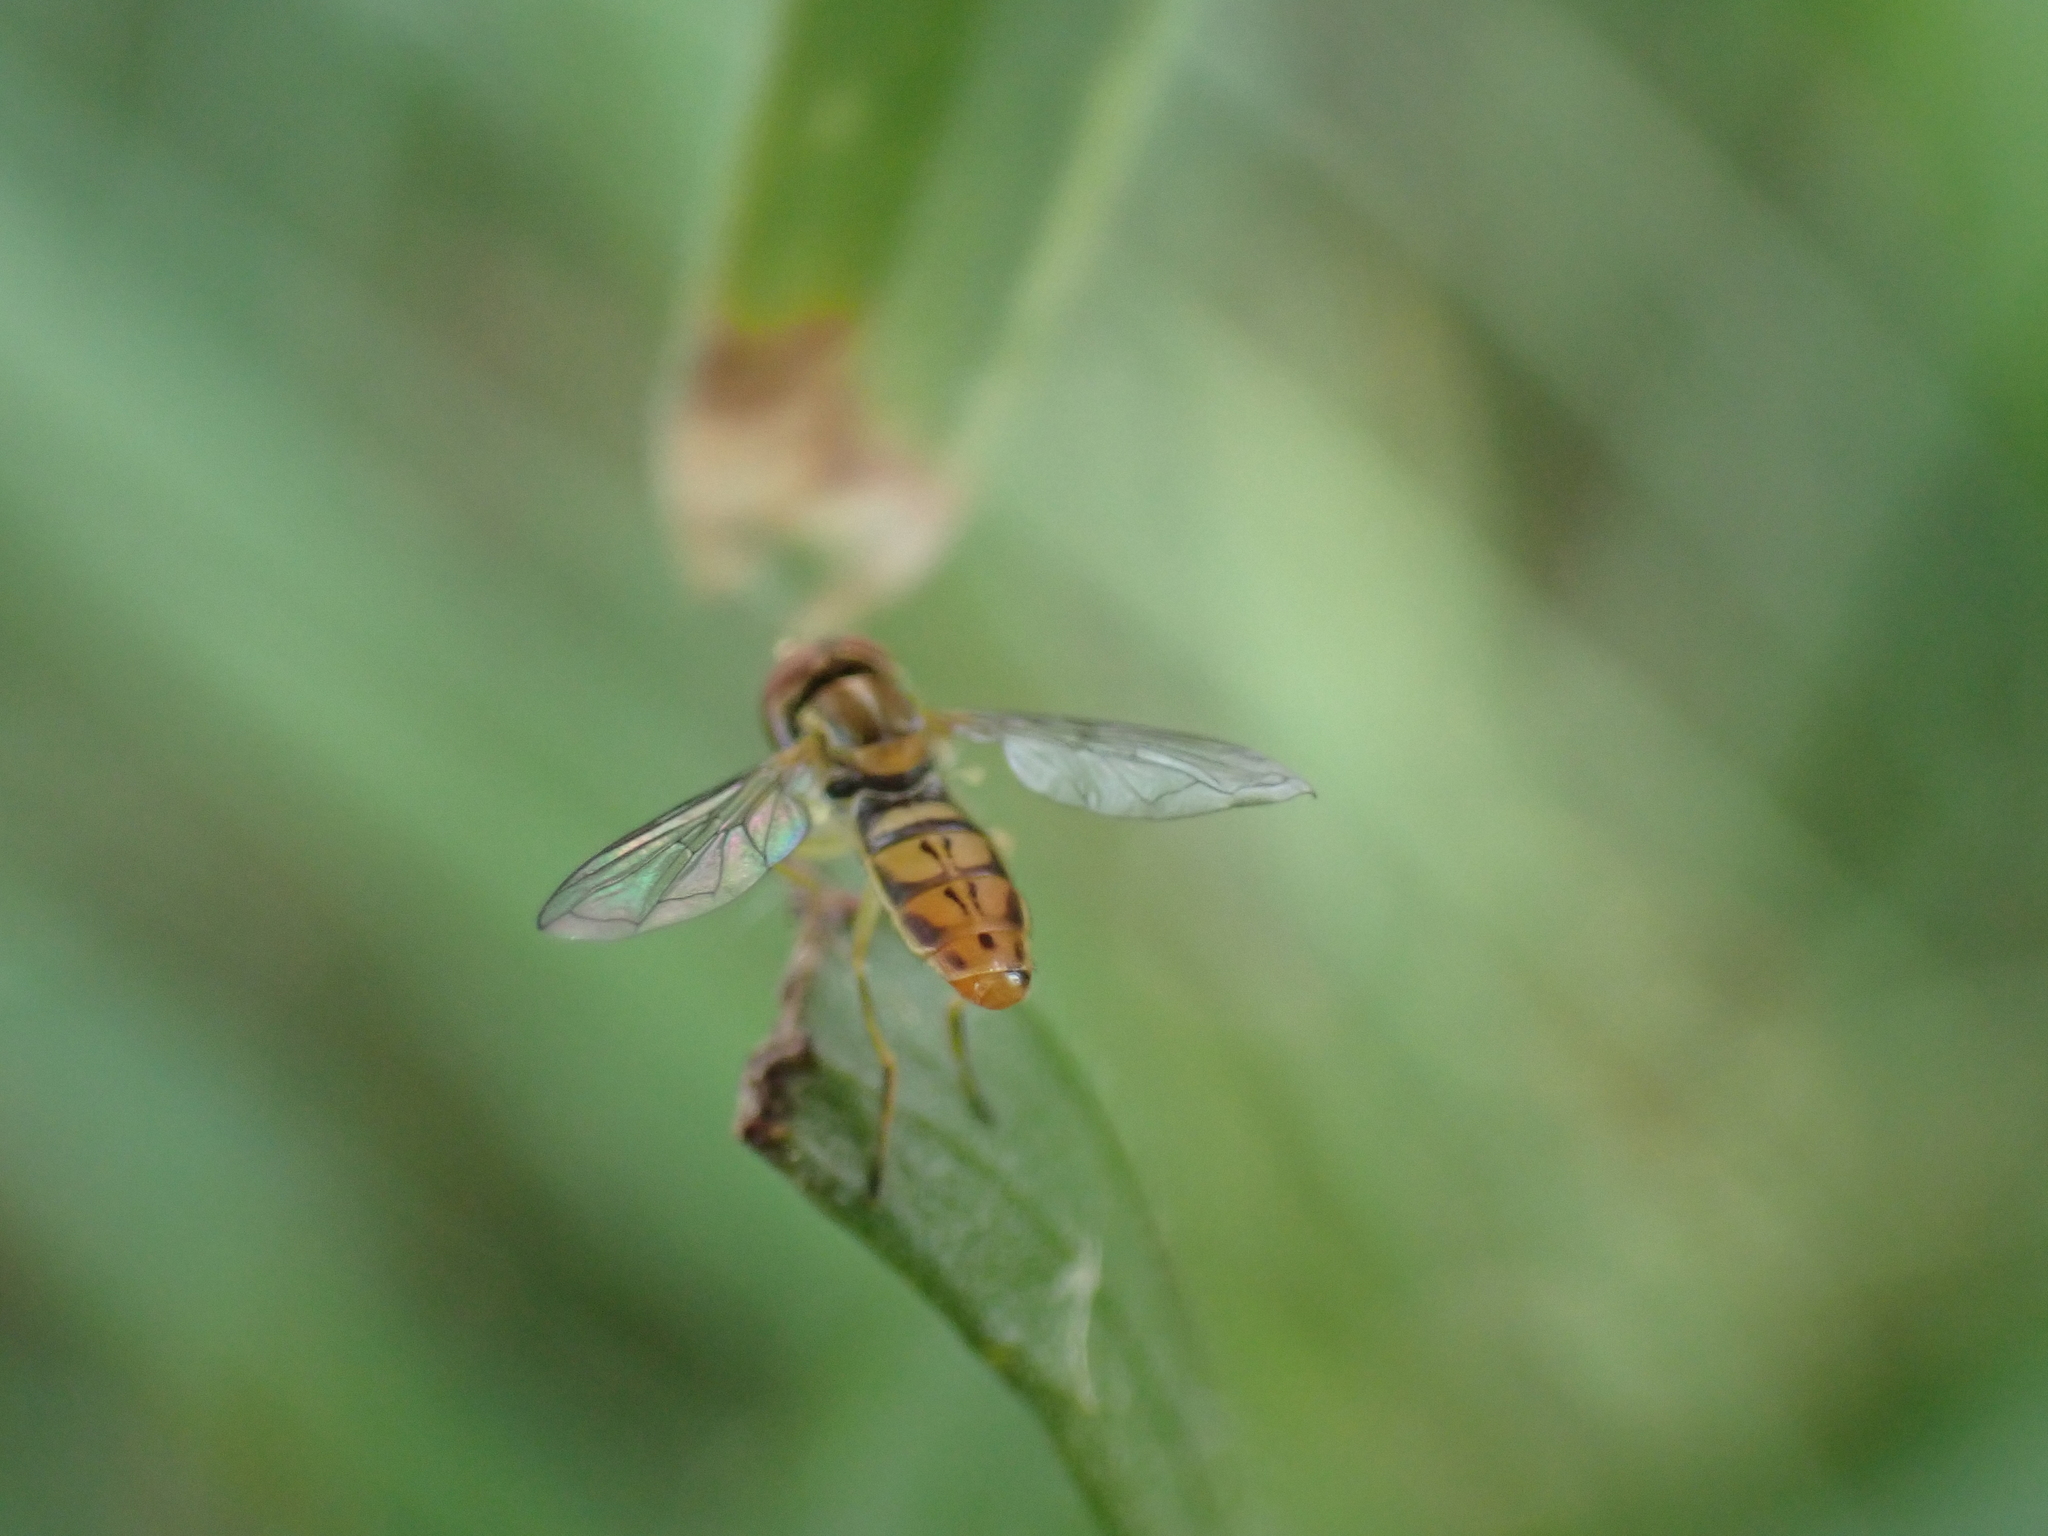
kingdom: Animalia
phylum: Arthropoda
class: Insecta
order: Diptera
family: Syrphidae
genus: Toxomerus
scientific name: Toxomerus marginatus
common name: Syrphid fly
